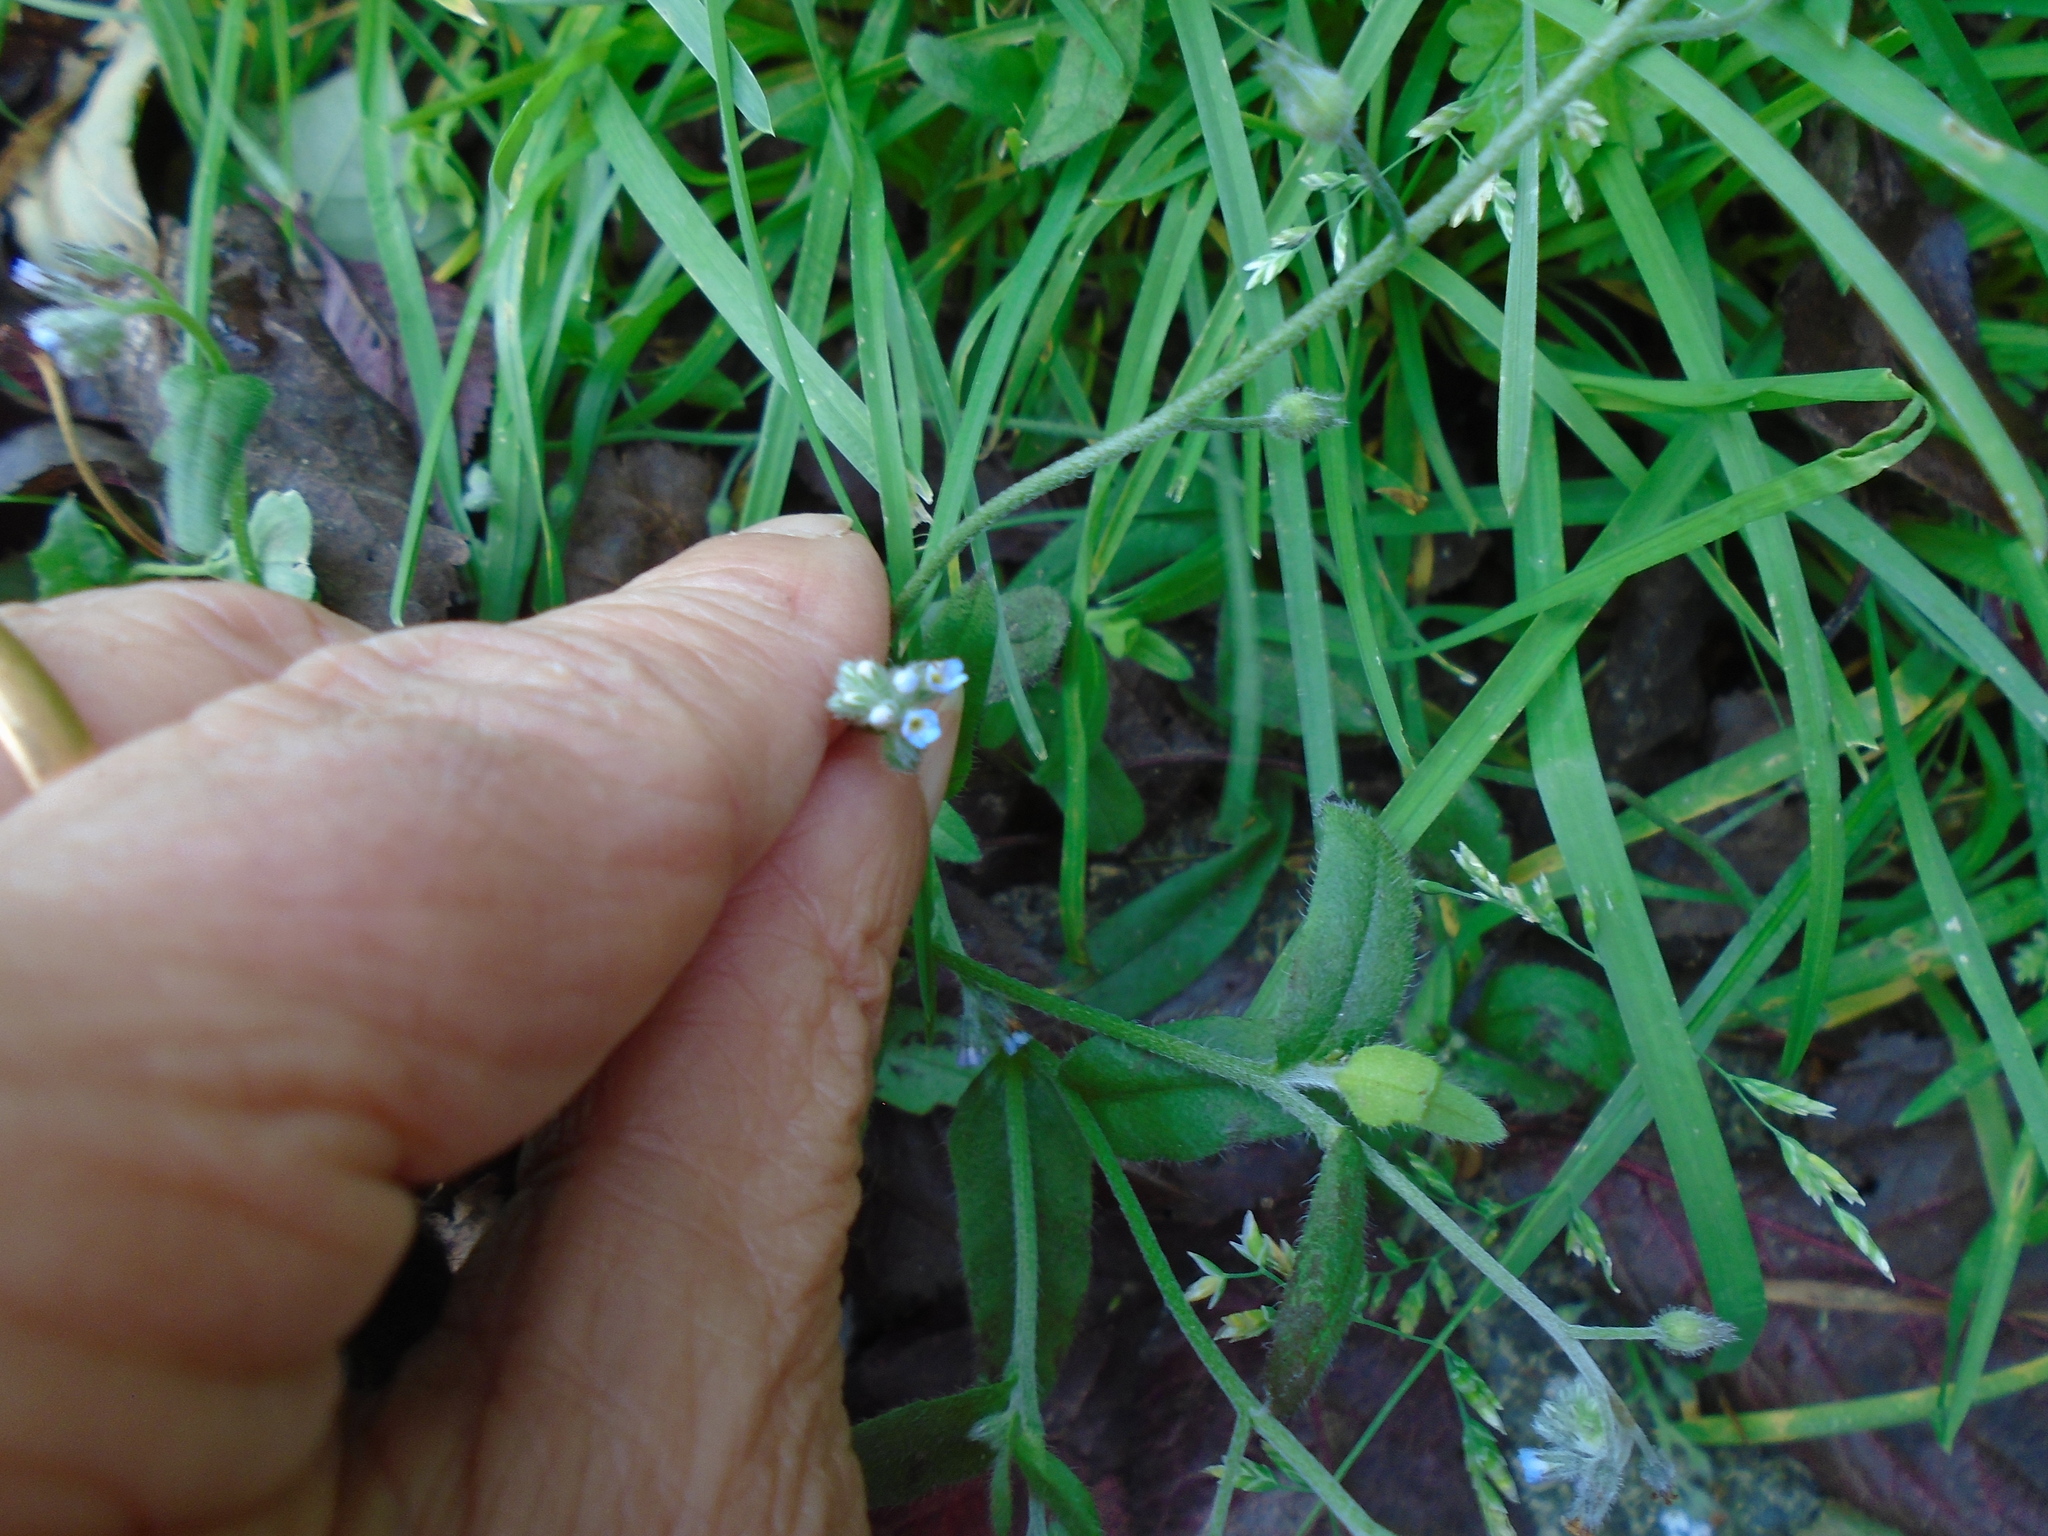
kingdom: Plantae
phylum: Tracheophyta
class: Magnoliopsida
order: Boraginales
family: Boraginaceae
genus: Myosotis
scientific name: Myosotis arvensis
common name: Field forget-me-not
